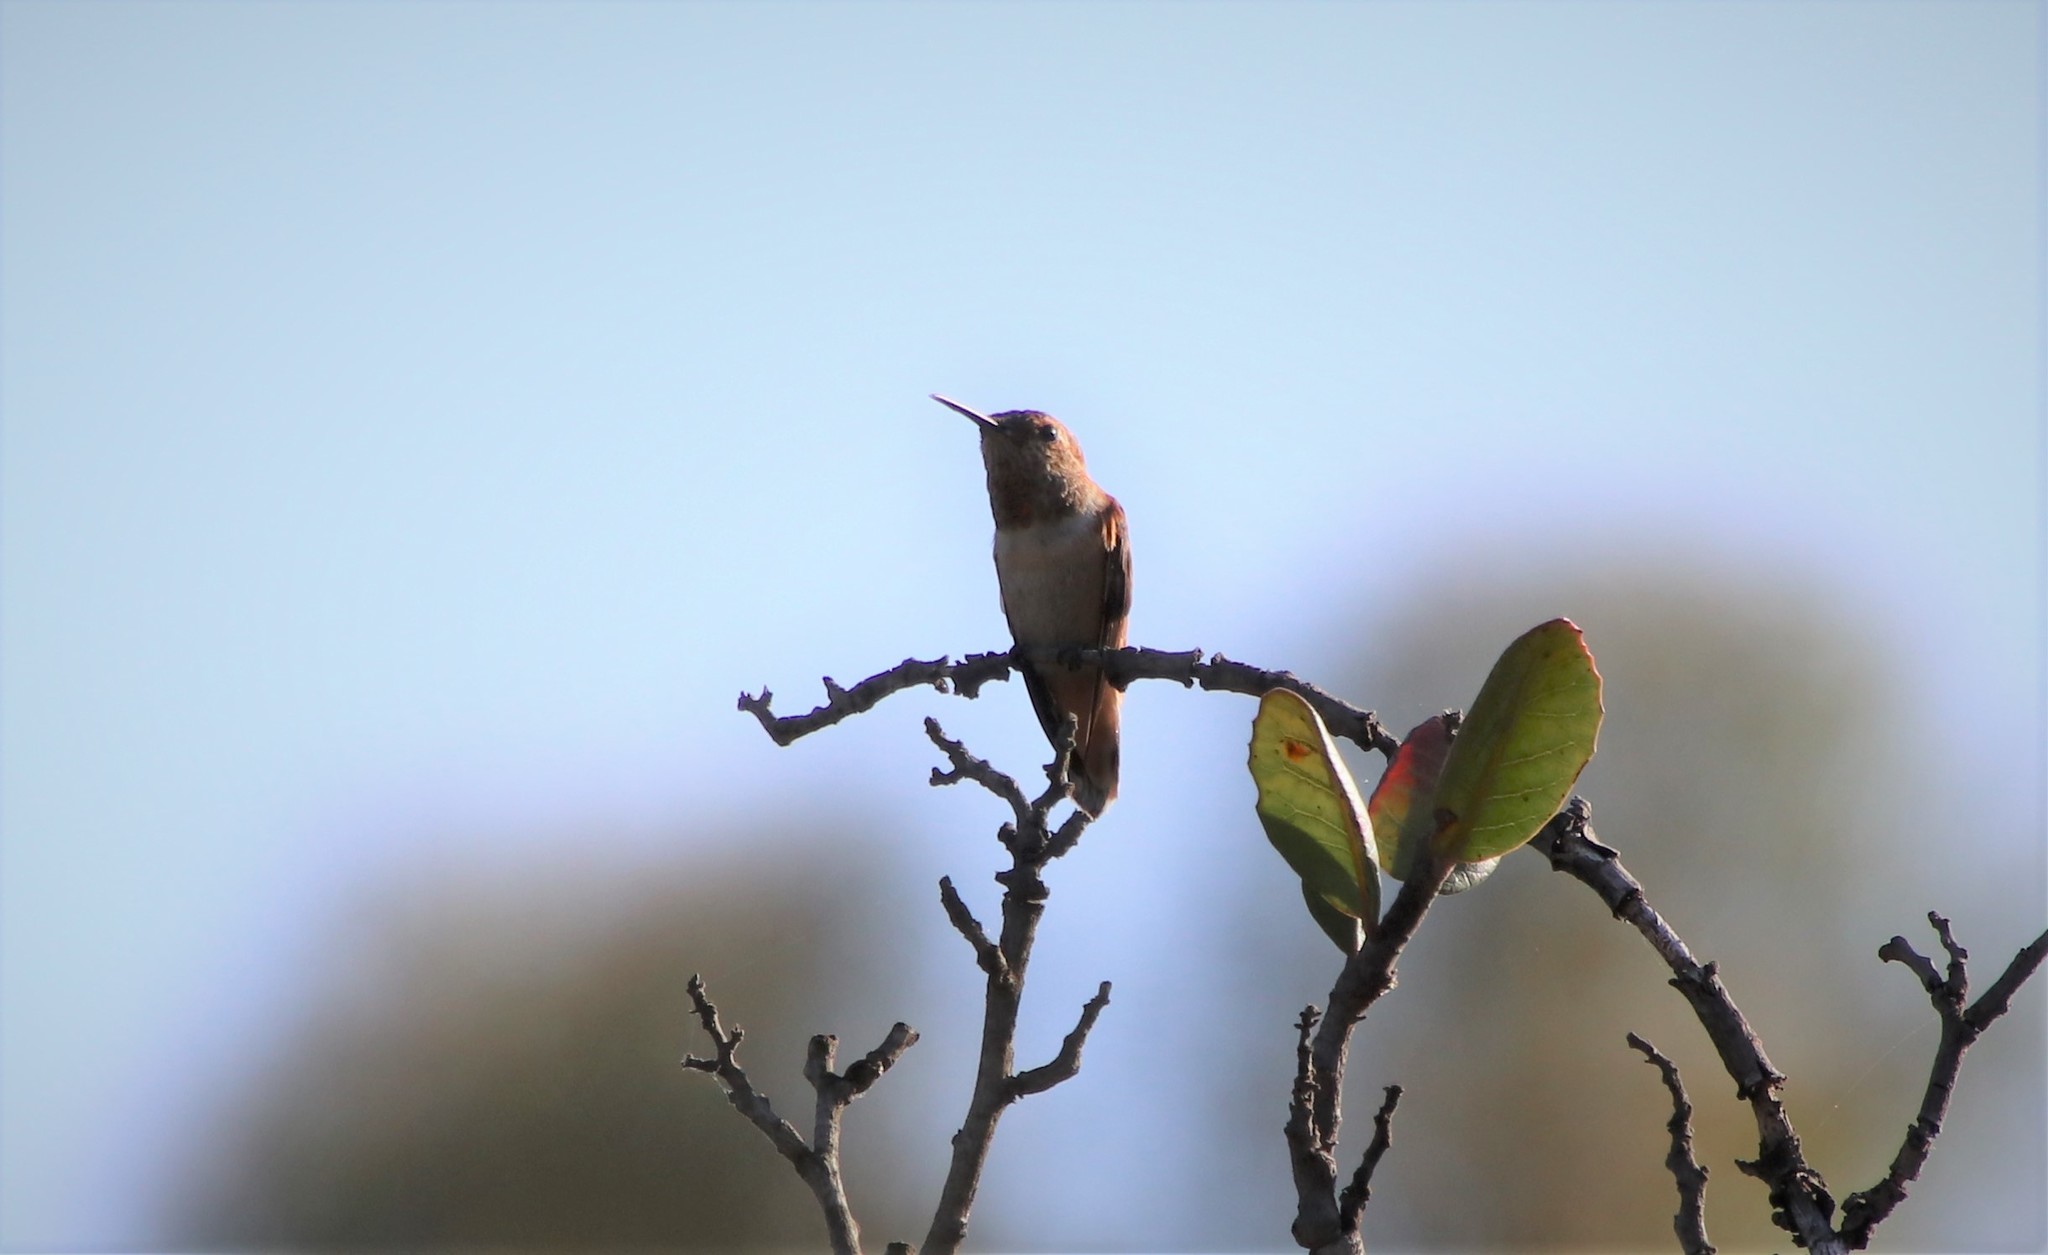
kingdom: Animalia
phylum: Chordata
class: Aves
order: Apodiformes
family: Trochilidae
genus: Selasphorus
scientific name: Selasphorus
